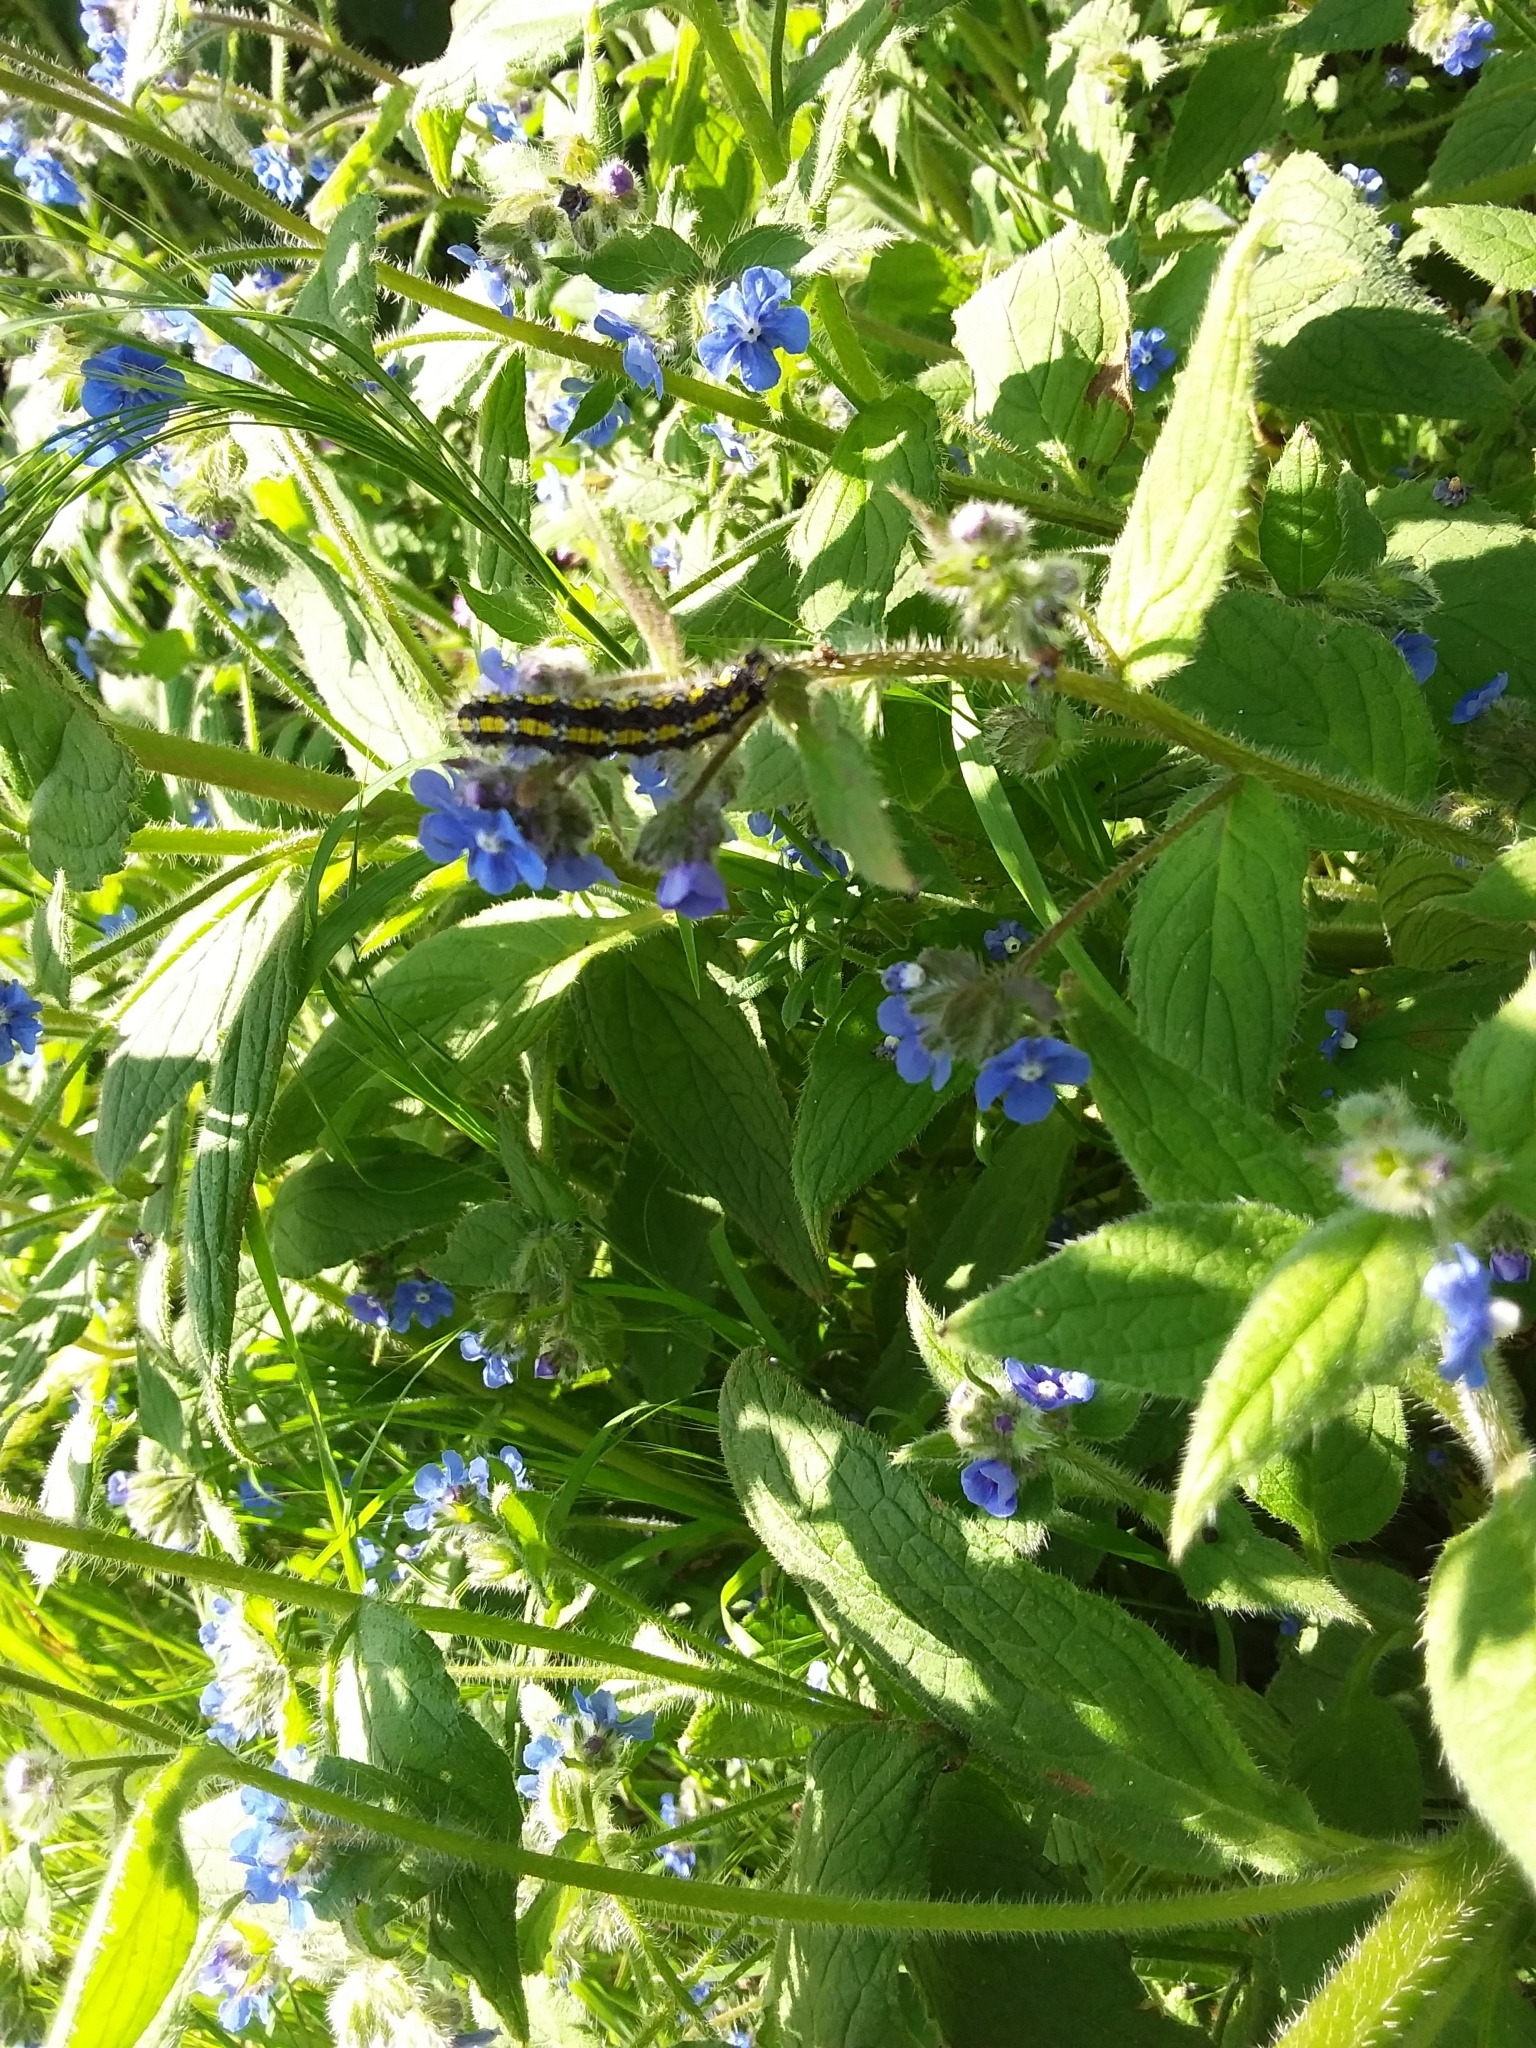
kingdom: Animalia
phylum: Arthropoda
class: Insecta
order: Lepidoptera
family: Erebidae
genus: Callimorpha
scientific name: Callimorpha dominula
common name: Scarlet tiger
